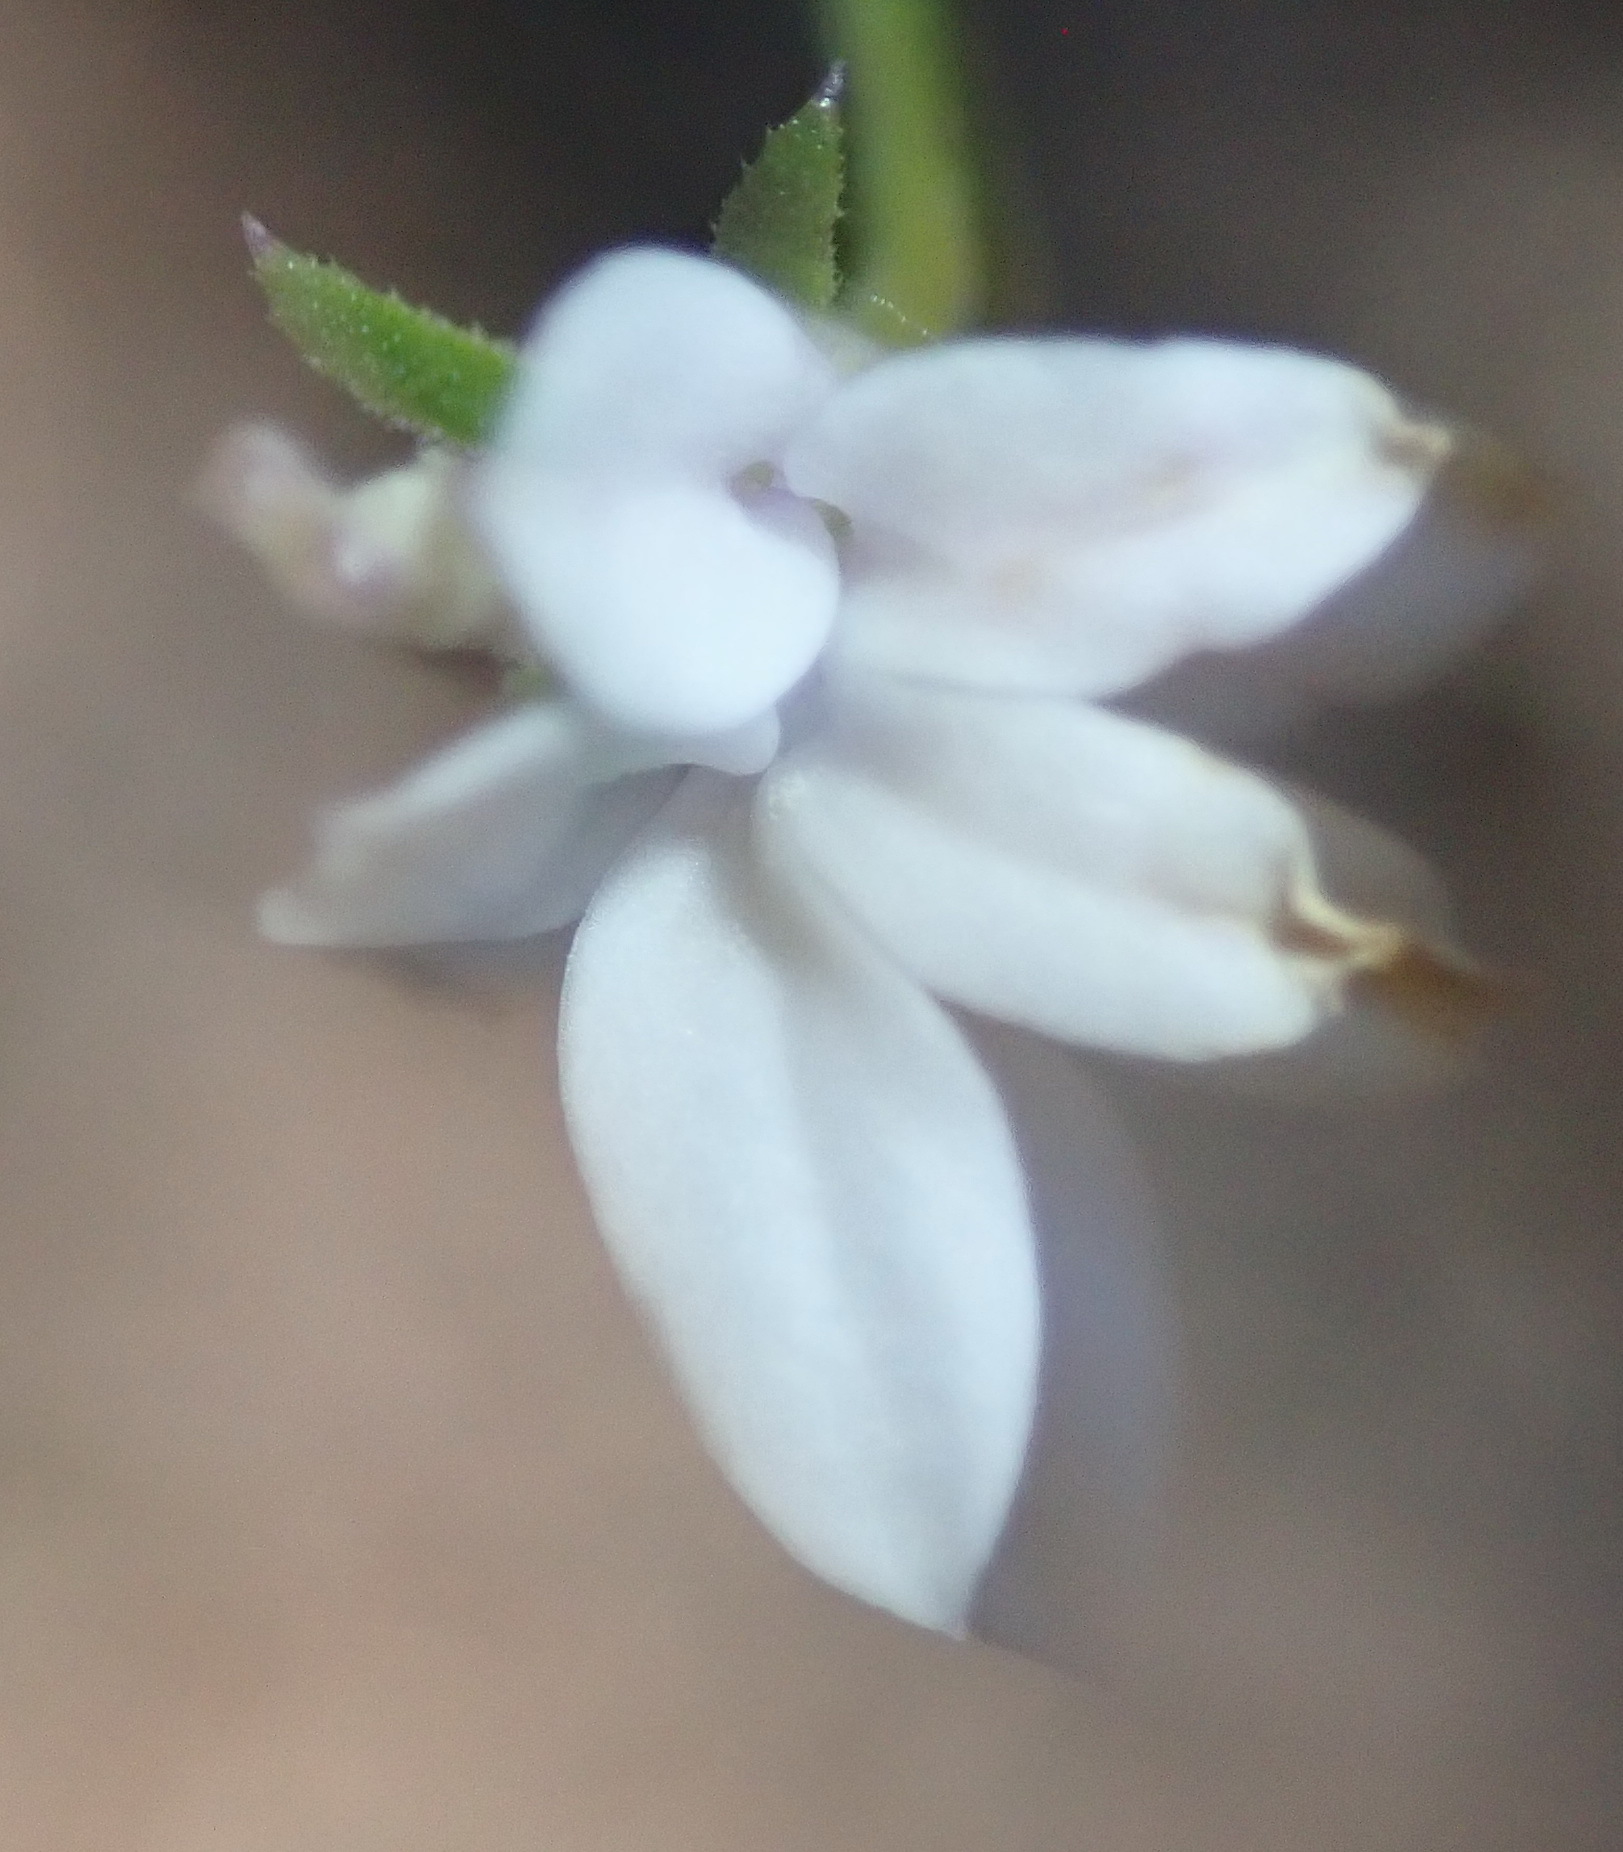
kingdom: Plantae
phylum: Tracheophyta
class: Magnoliopsida
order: Asterales
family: Campanulaceae
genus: Monopsis
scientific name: Monopsis alba
